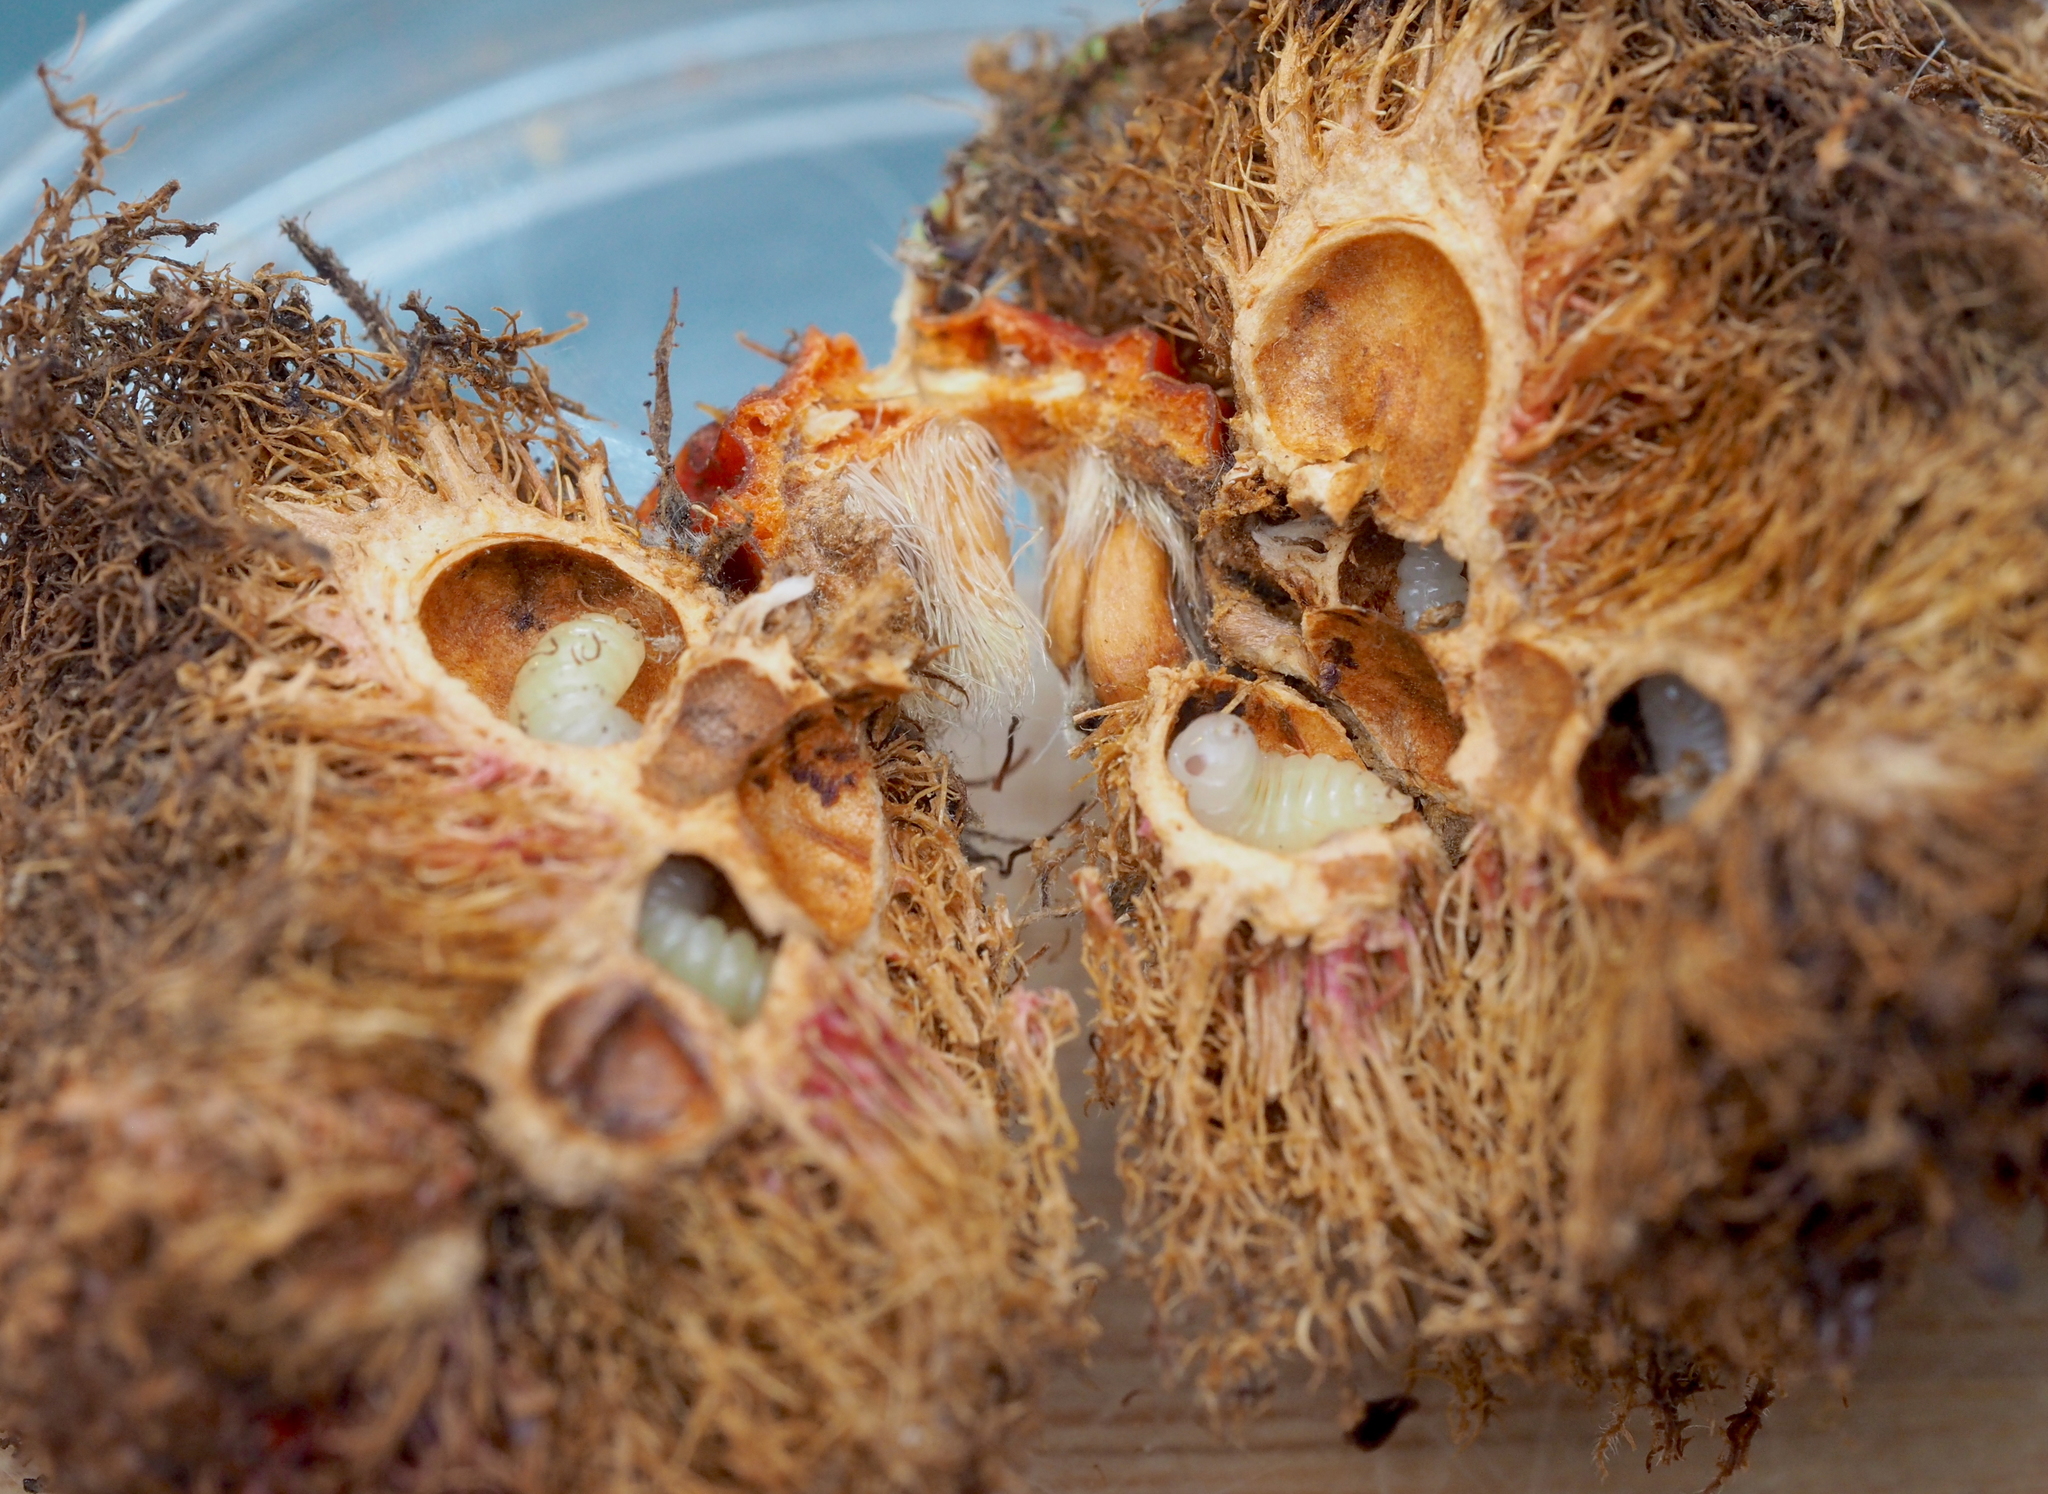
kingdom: Animalia
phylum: Arthropoda
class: Insecta
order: Hymenoptera
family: Cynipidae
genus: Diplolepis
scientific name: Diplolepis rosae
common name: Bedeguar gall
